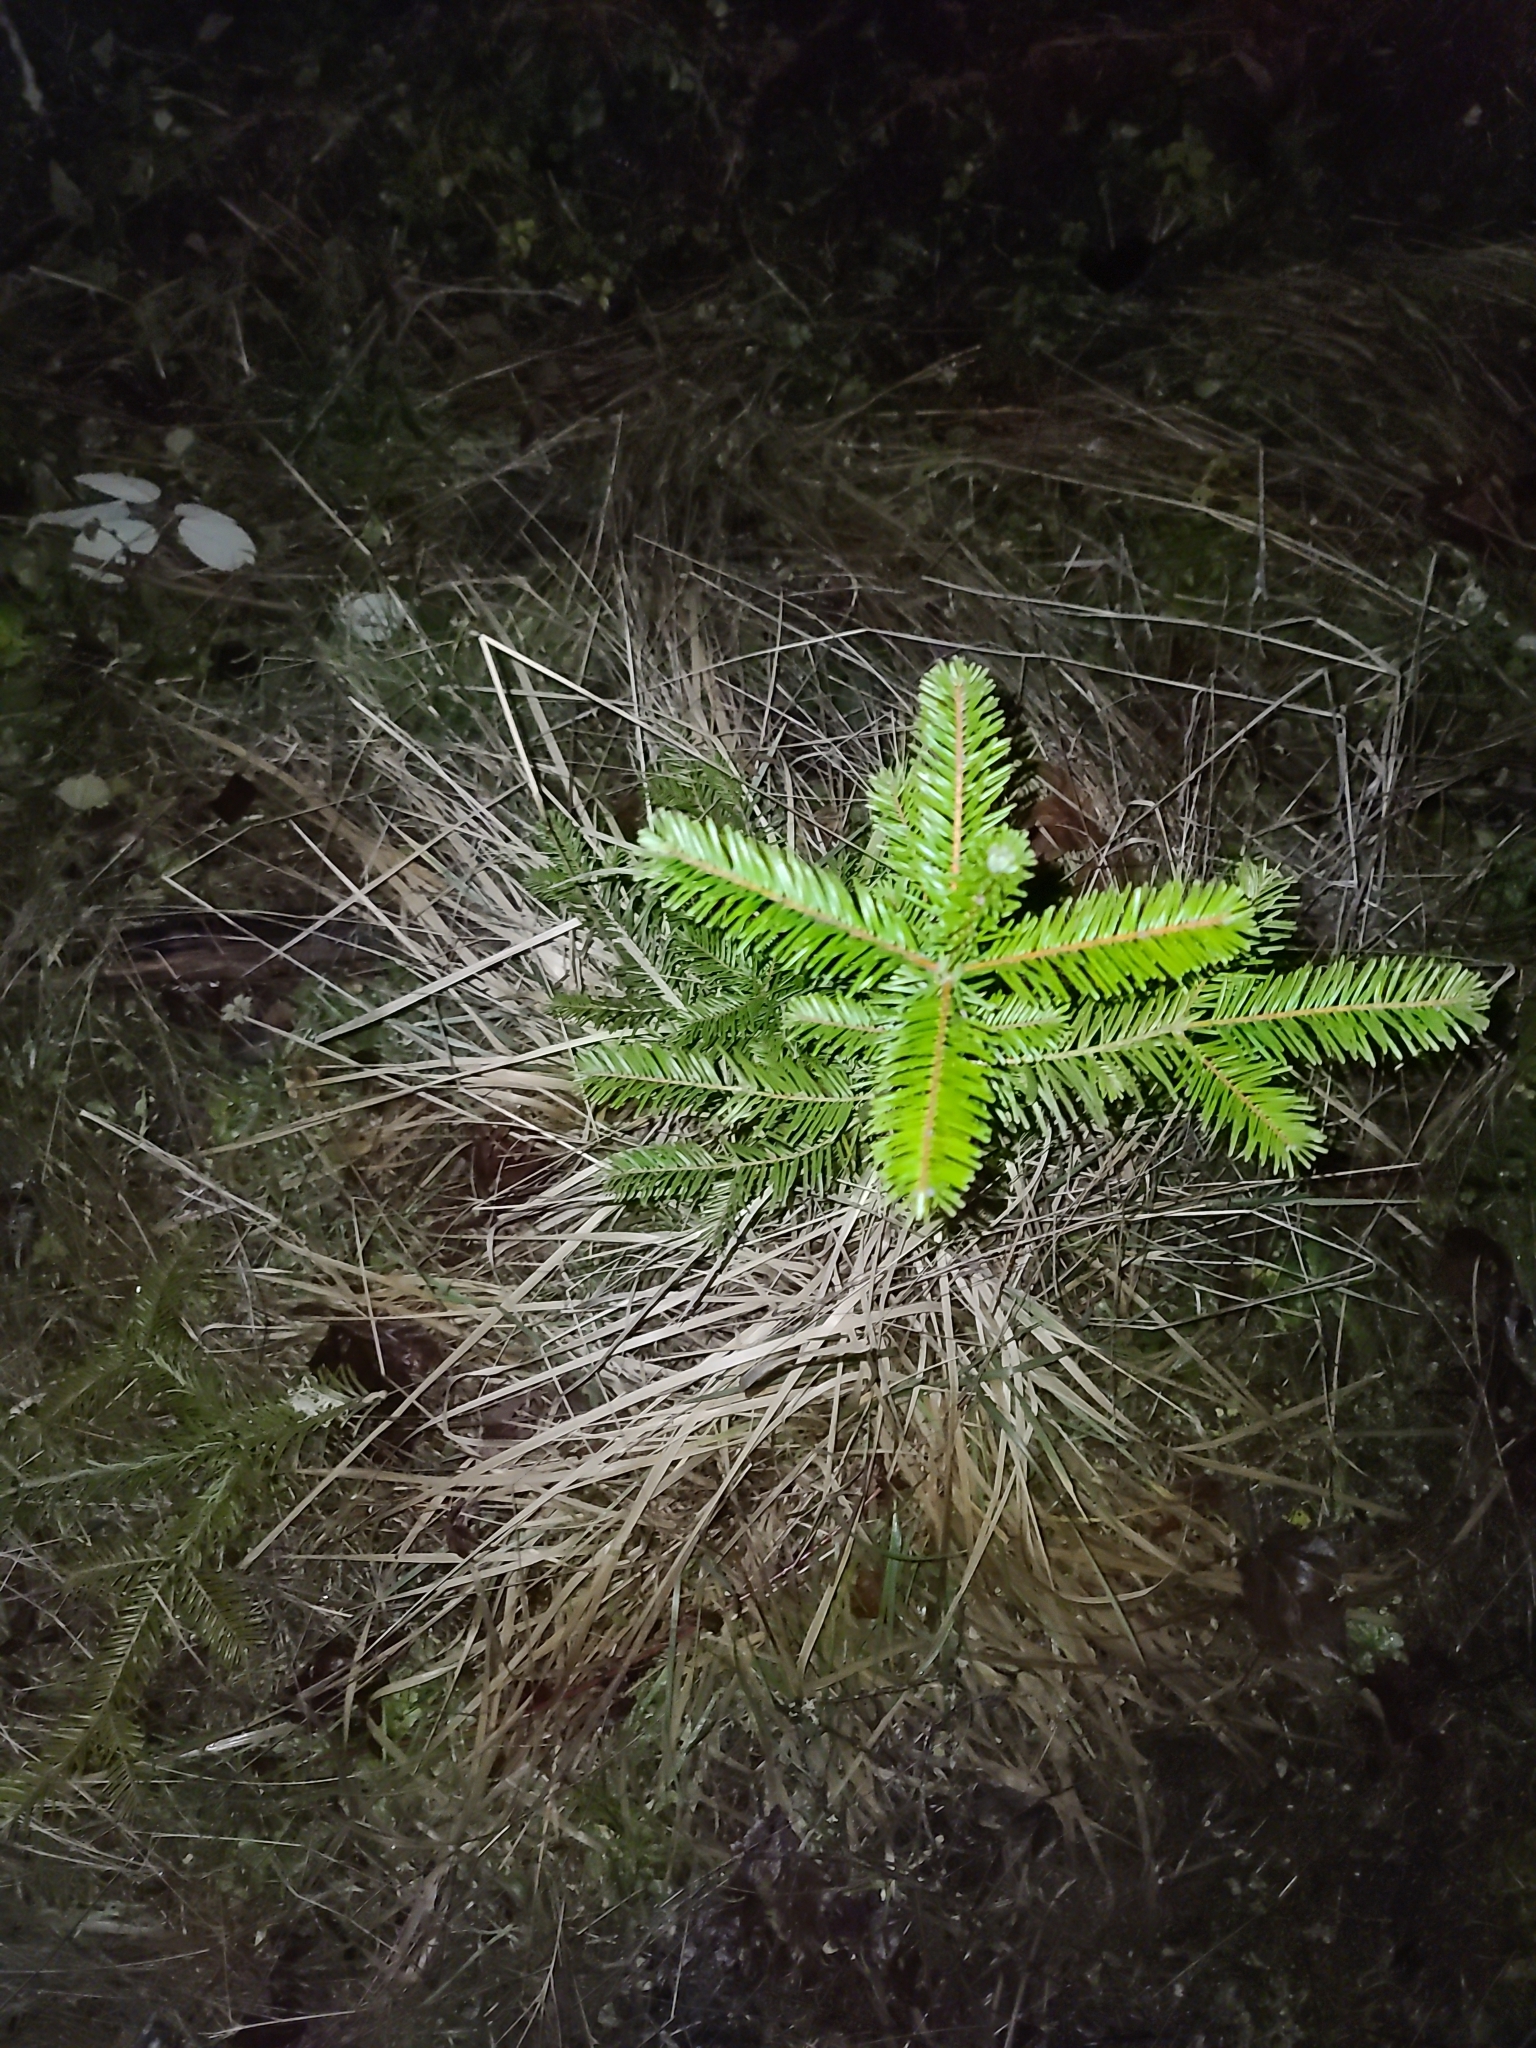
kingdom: Plantae
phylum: Tracheophyta
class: Pinopsida
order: Pinales
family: Pinaceae
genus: Abies
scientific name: Abies grandis
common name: Giant fir
